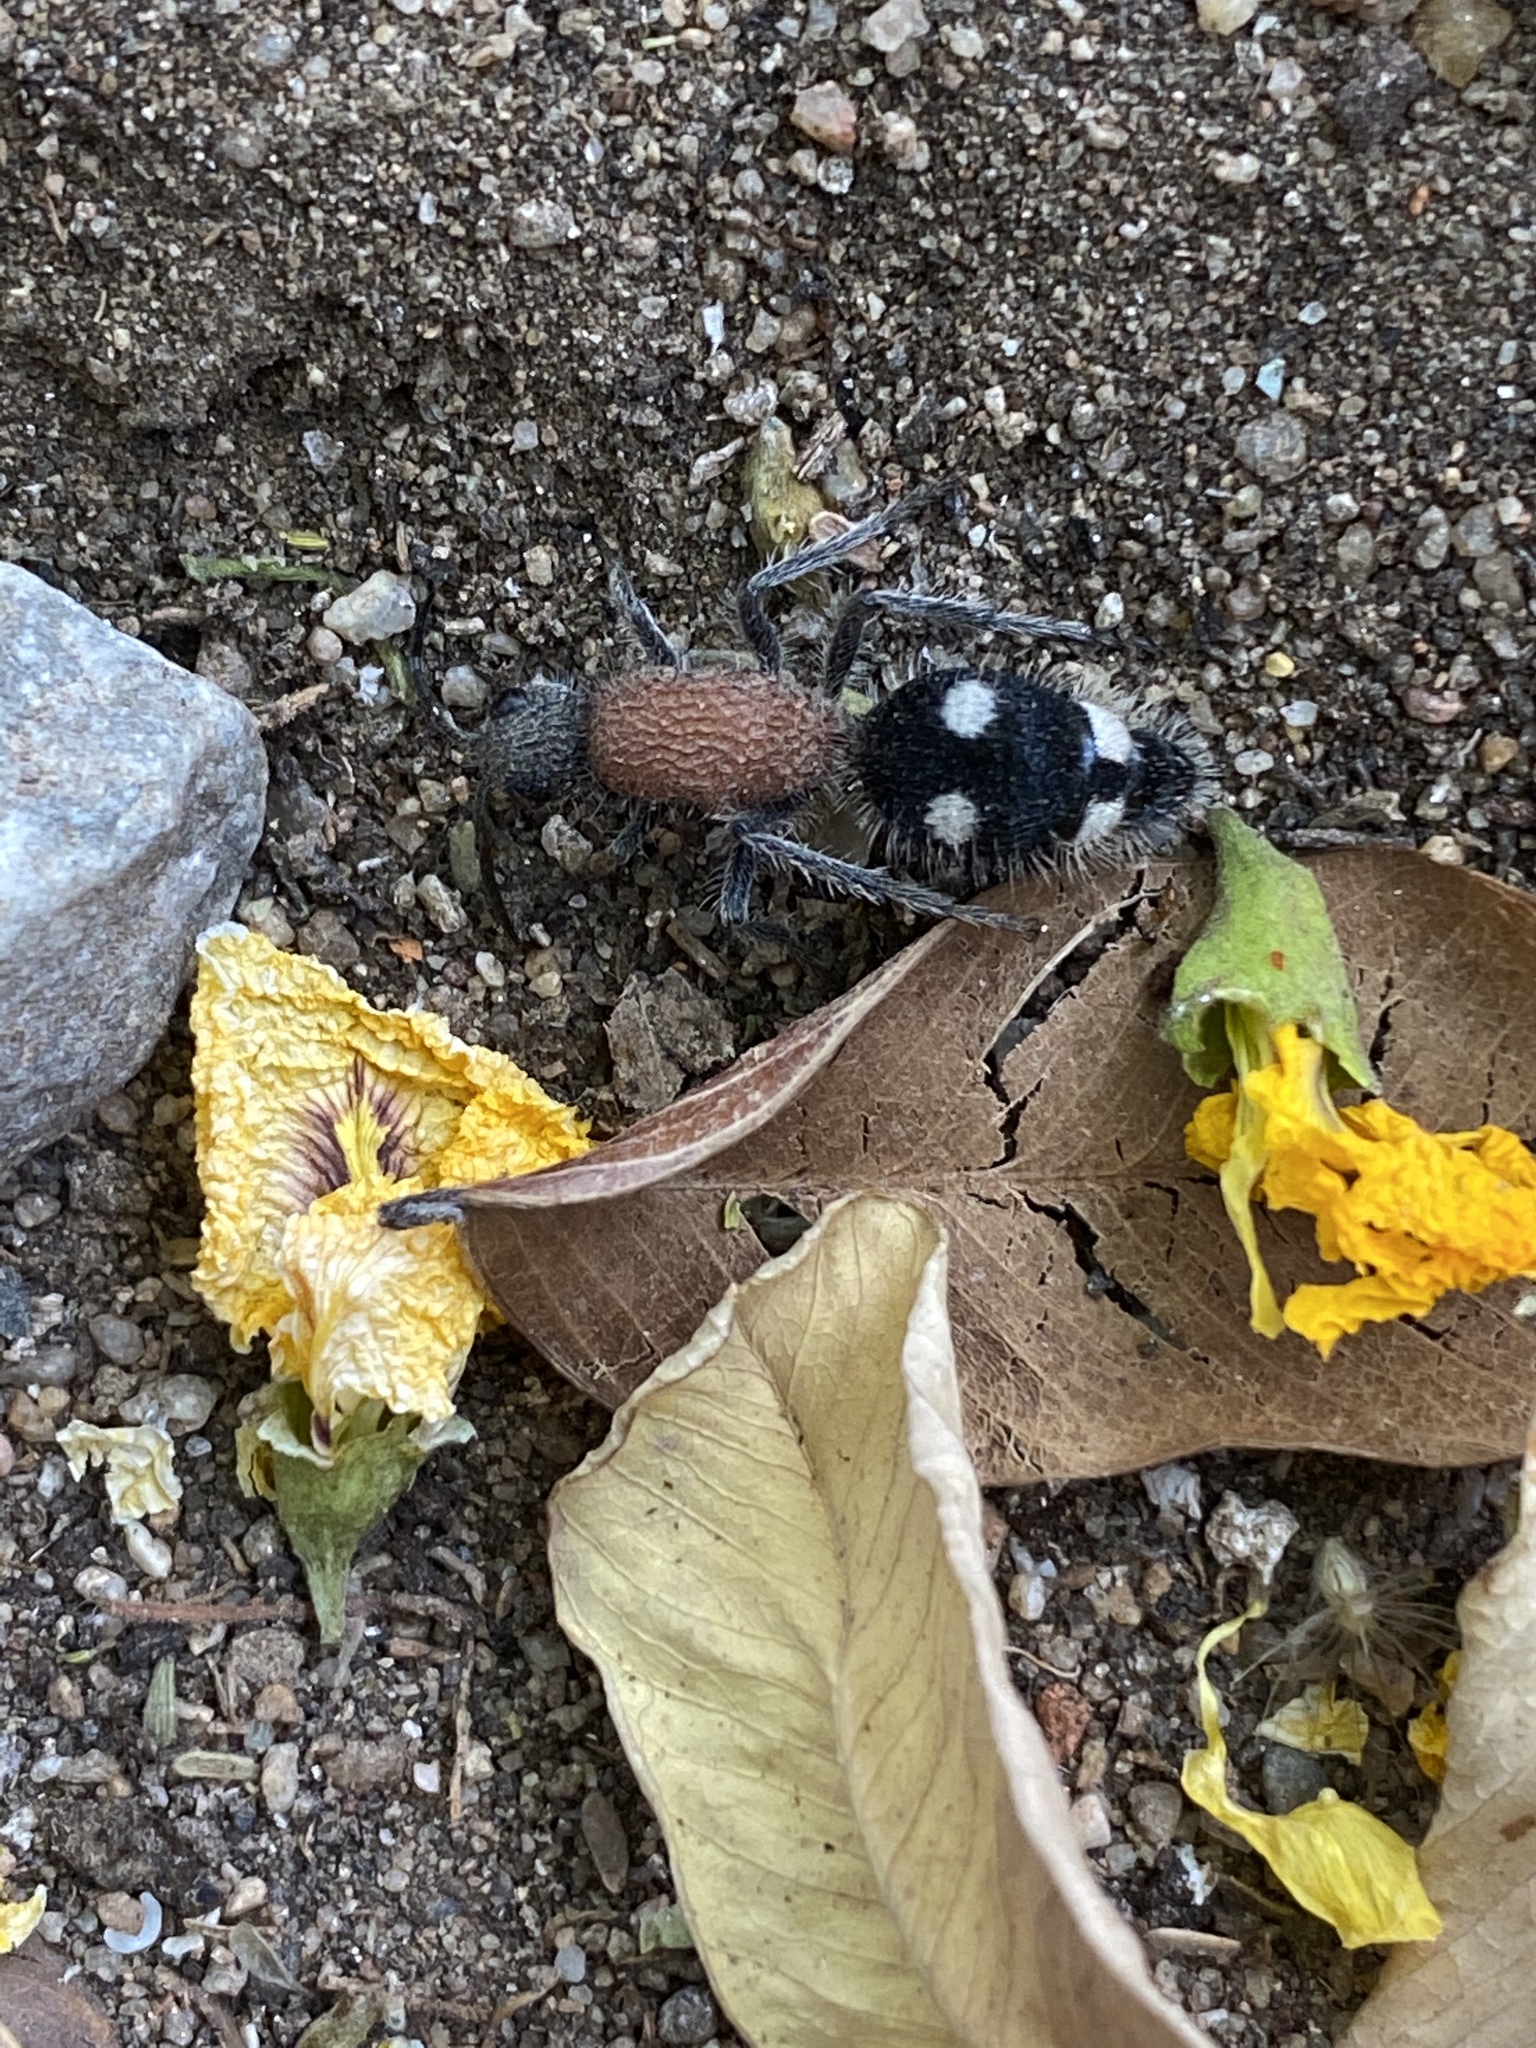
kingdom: Animalia
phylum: Arthropoda
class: Insecta
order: Hymenoptera
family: Mutillidae
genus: Dolichomutilla
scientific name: Dolichomutilla
